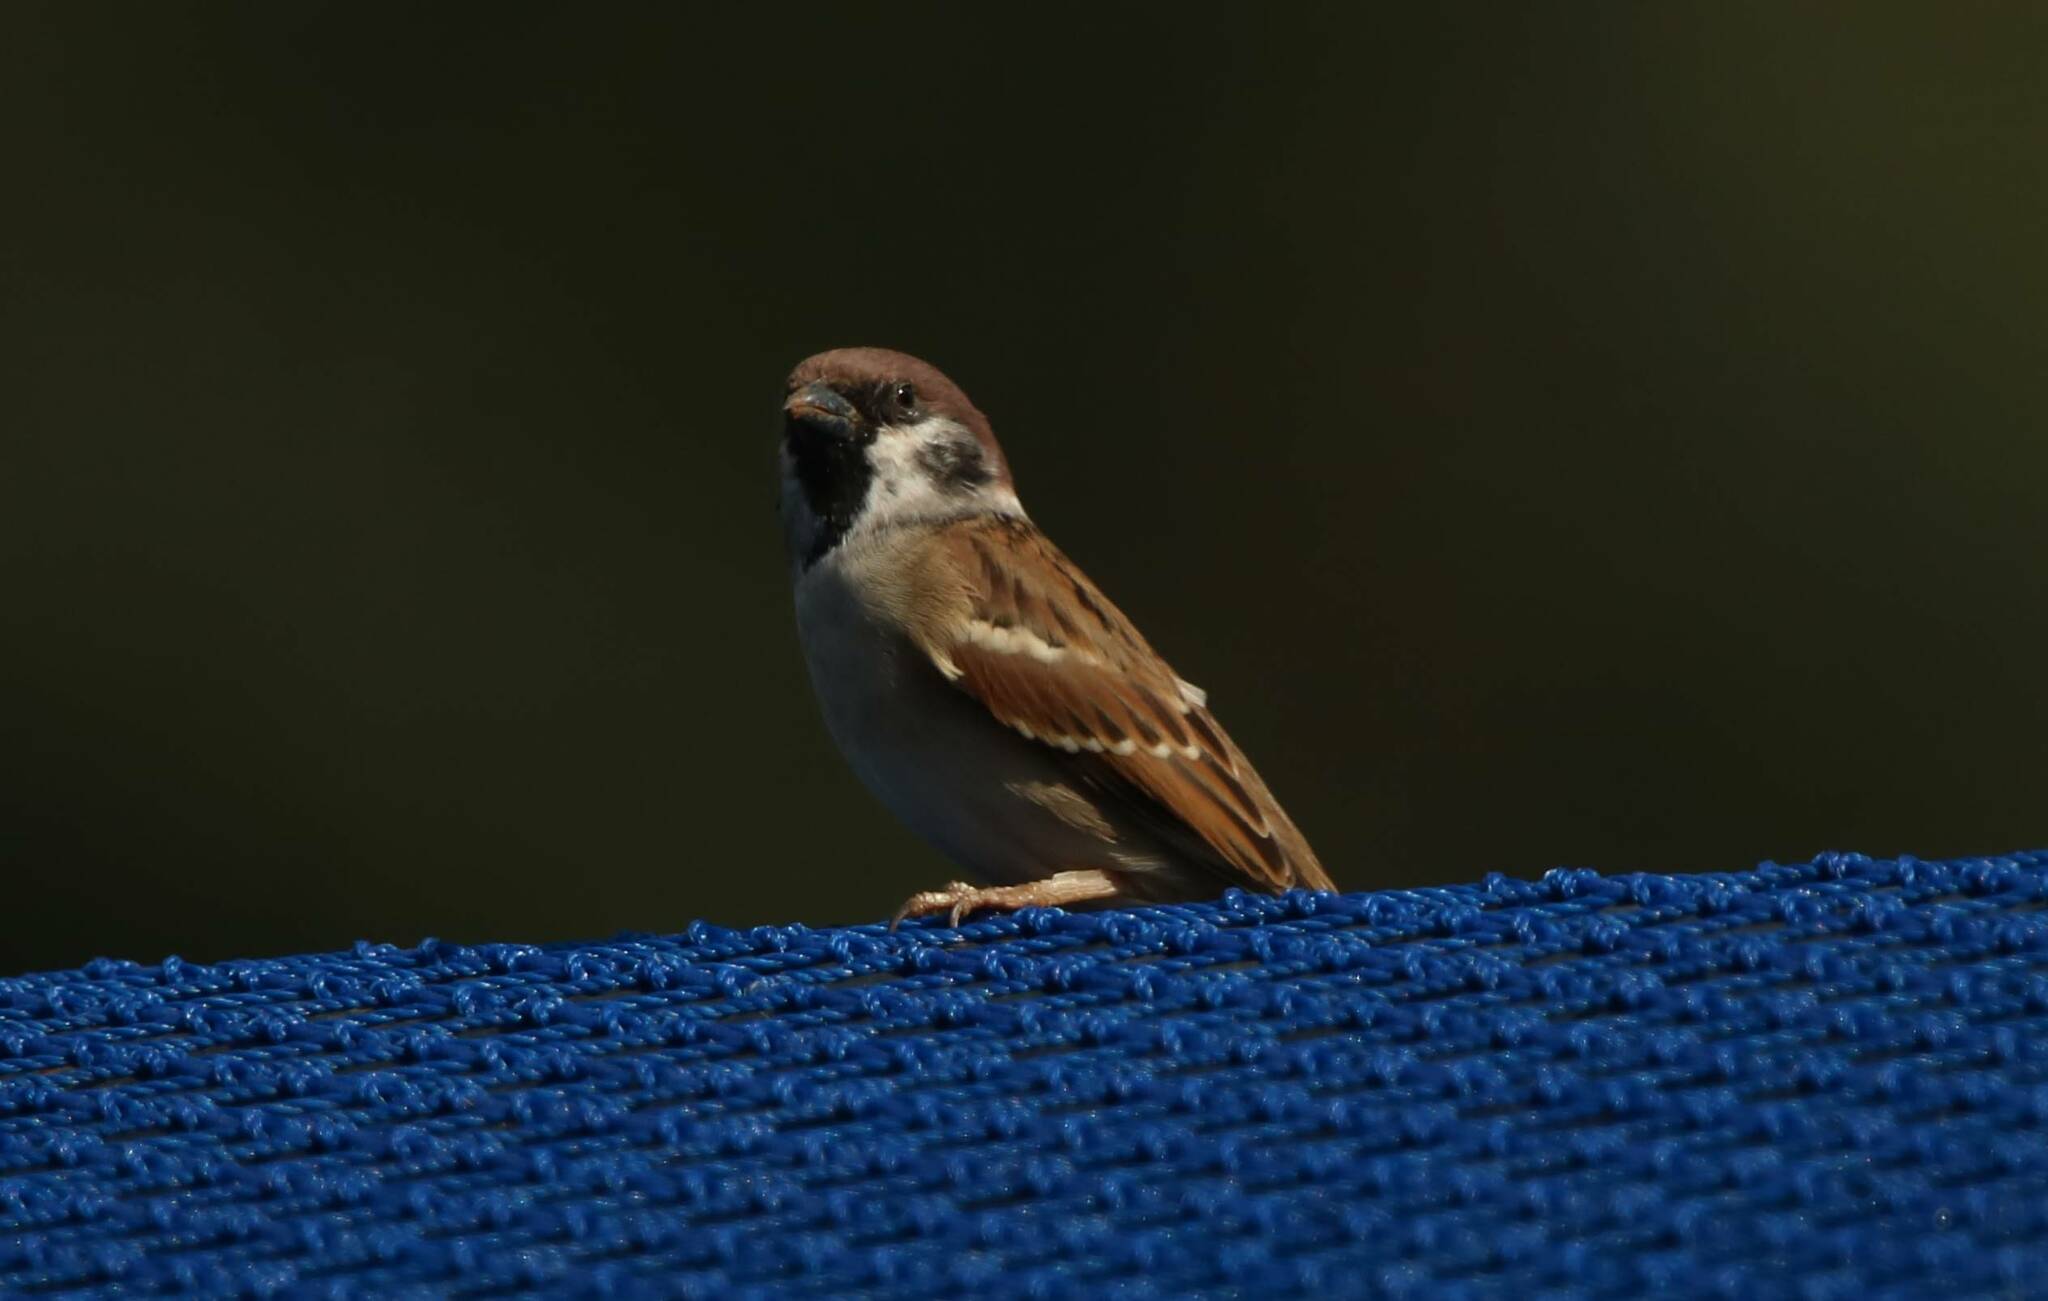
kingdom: Animalia
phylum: Chordata
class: Aves
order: Passeriformes
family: Passeridae
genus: Passer
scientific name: Passer montanus
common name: Eurasian tree sparrow
